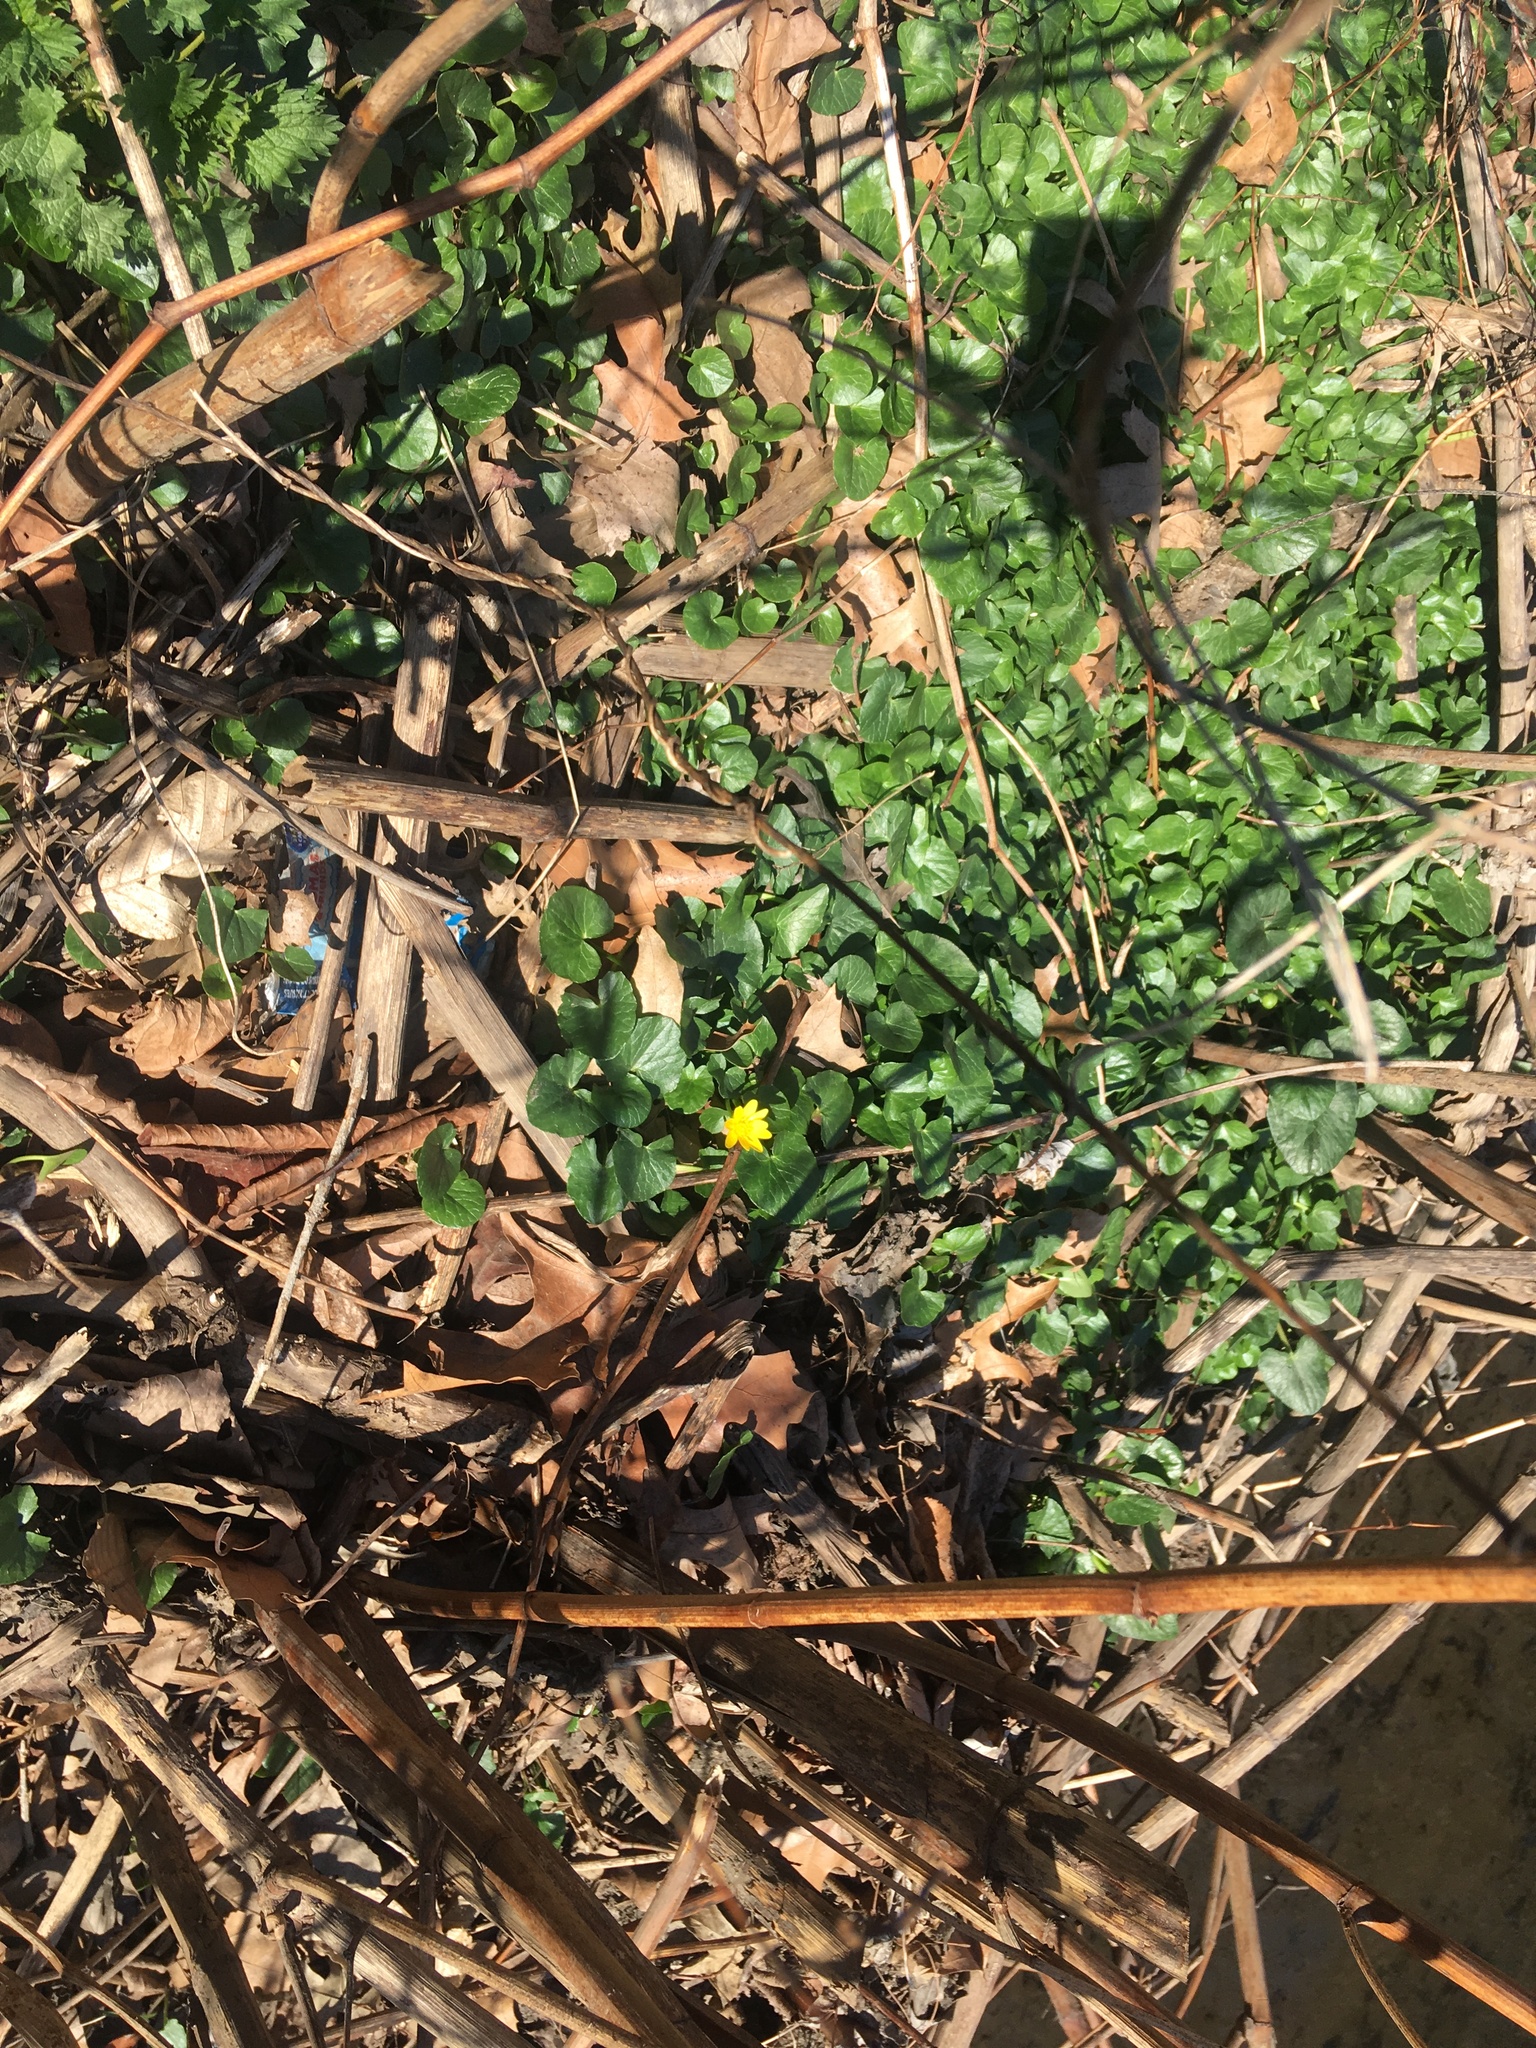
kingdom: Plantae
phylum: Tracheophyta
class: Magnoliopsida
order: Ranunculales
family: Ranunculaceae
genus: Ficaria
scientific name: Ficaria verna
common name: Lesser celandine
